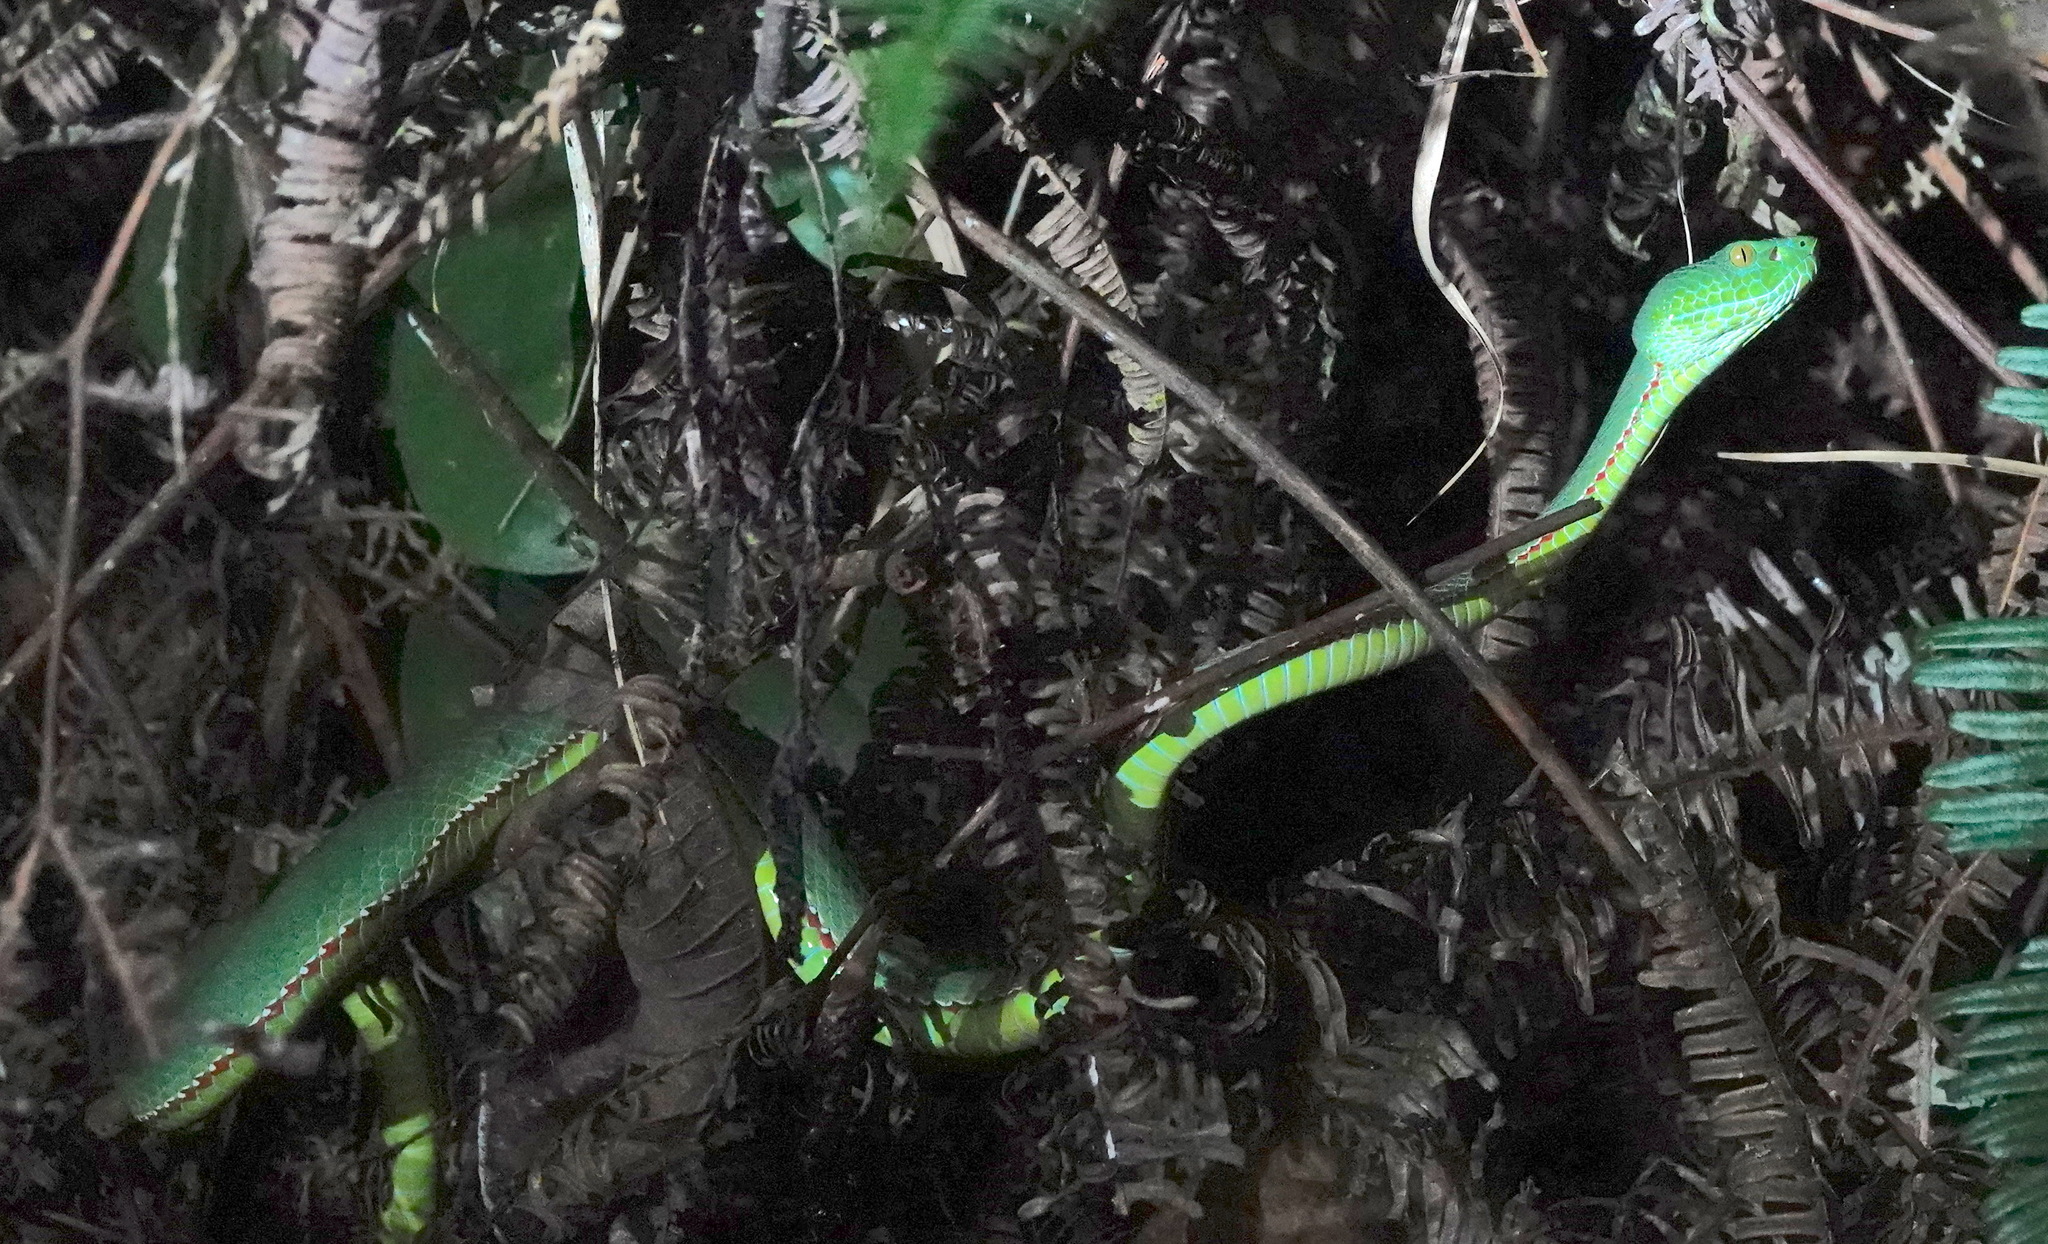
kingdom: Animalia
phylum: Chordata
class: Squamata
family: Viperidae
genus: Trimeresurus
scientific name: Trimeresurus sabahi
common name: Sabah bamboo pit viper
